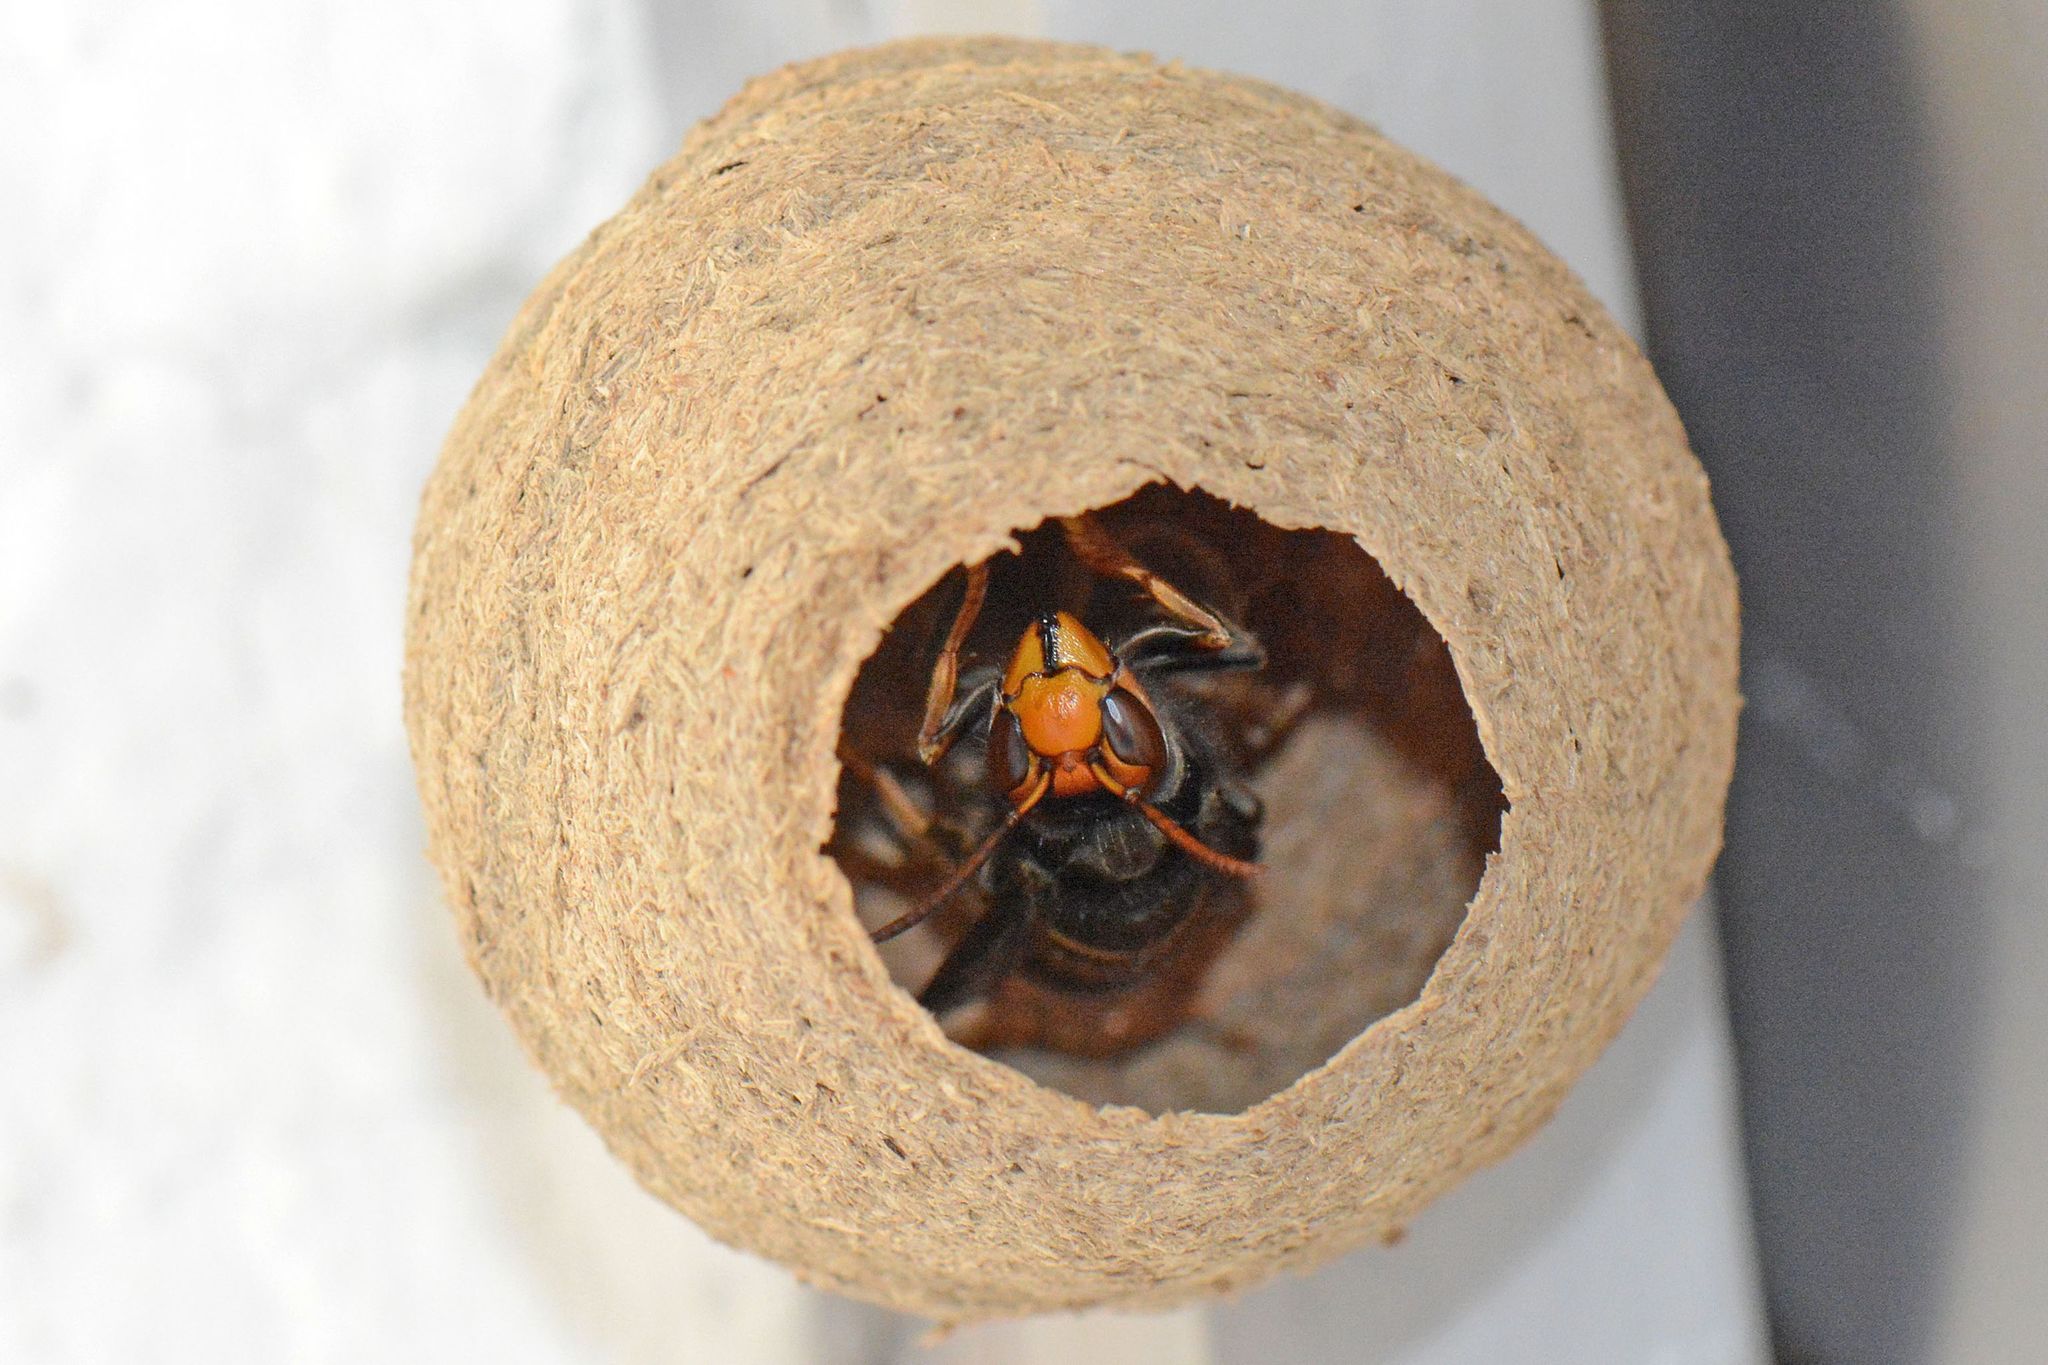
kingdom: Animalia
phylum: Arthropoda
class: Insecta
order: Hymenoptera
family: Vespidae
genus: Vespa
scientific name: Vespa velutina
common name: Asian hornet
